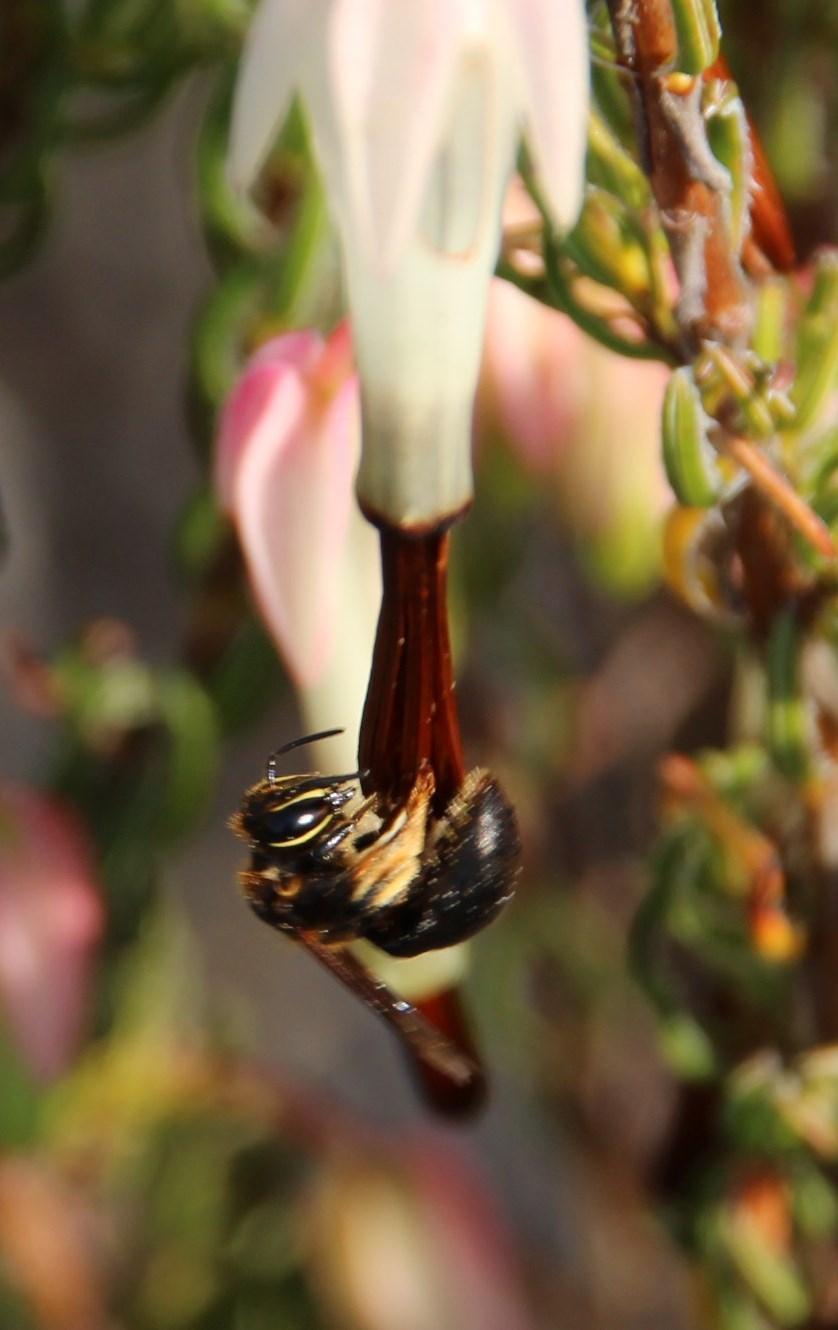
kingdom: Plantae
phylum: Tracheophyta
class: Magnoliopsida
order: Ericales
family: Ericaceae
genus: Erica
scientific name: Erica plukenetii
